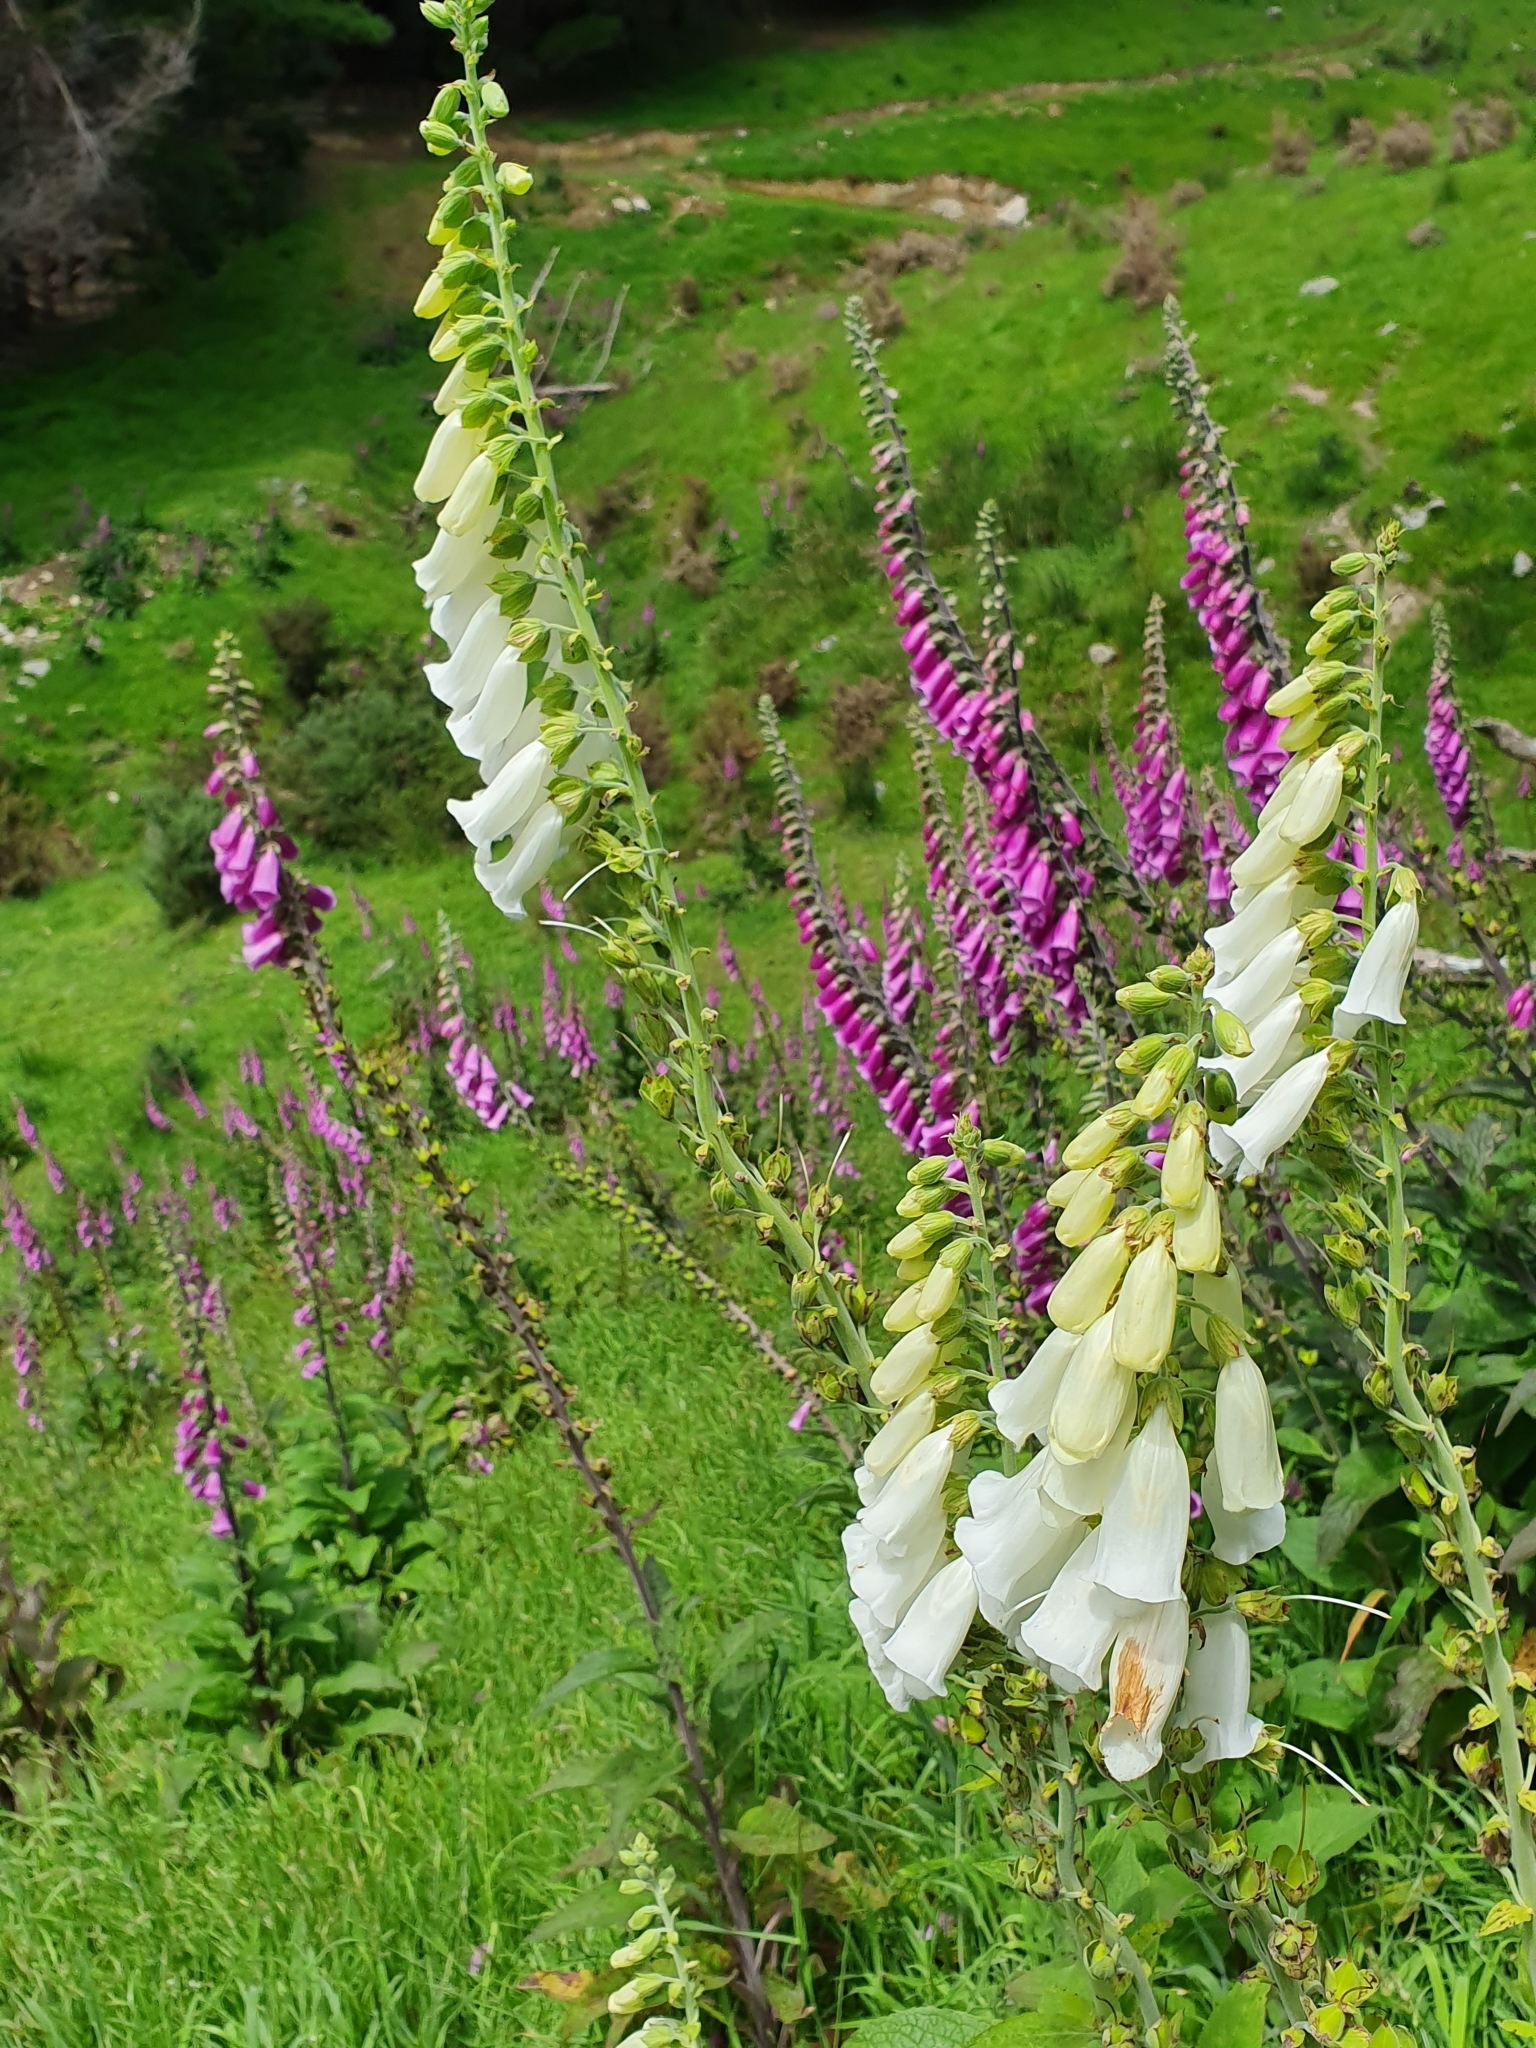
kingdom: Plantae
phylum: Tracheophyta
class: Magnoliopsida
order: Lamiales
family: Plantaginaceae
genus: Digitalis
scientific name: Digitalis purpurea
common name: Foxglove
